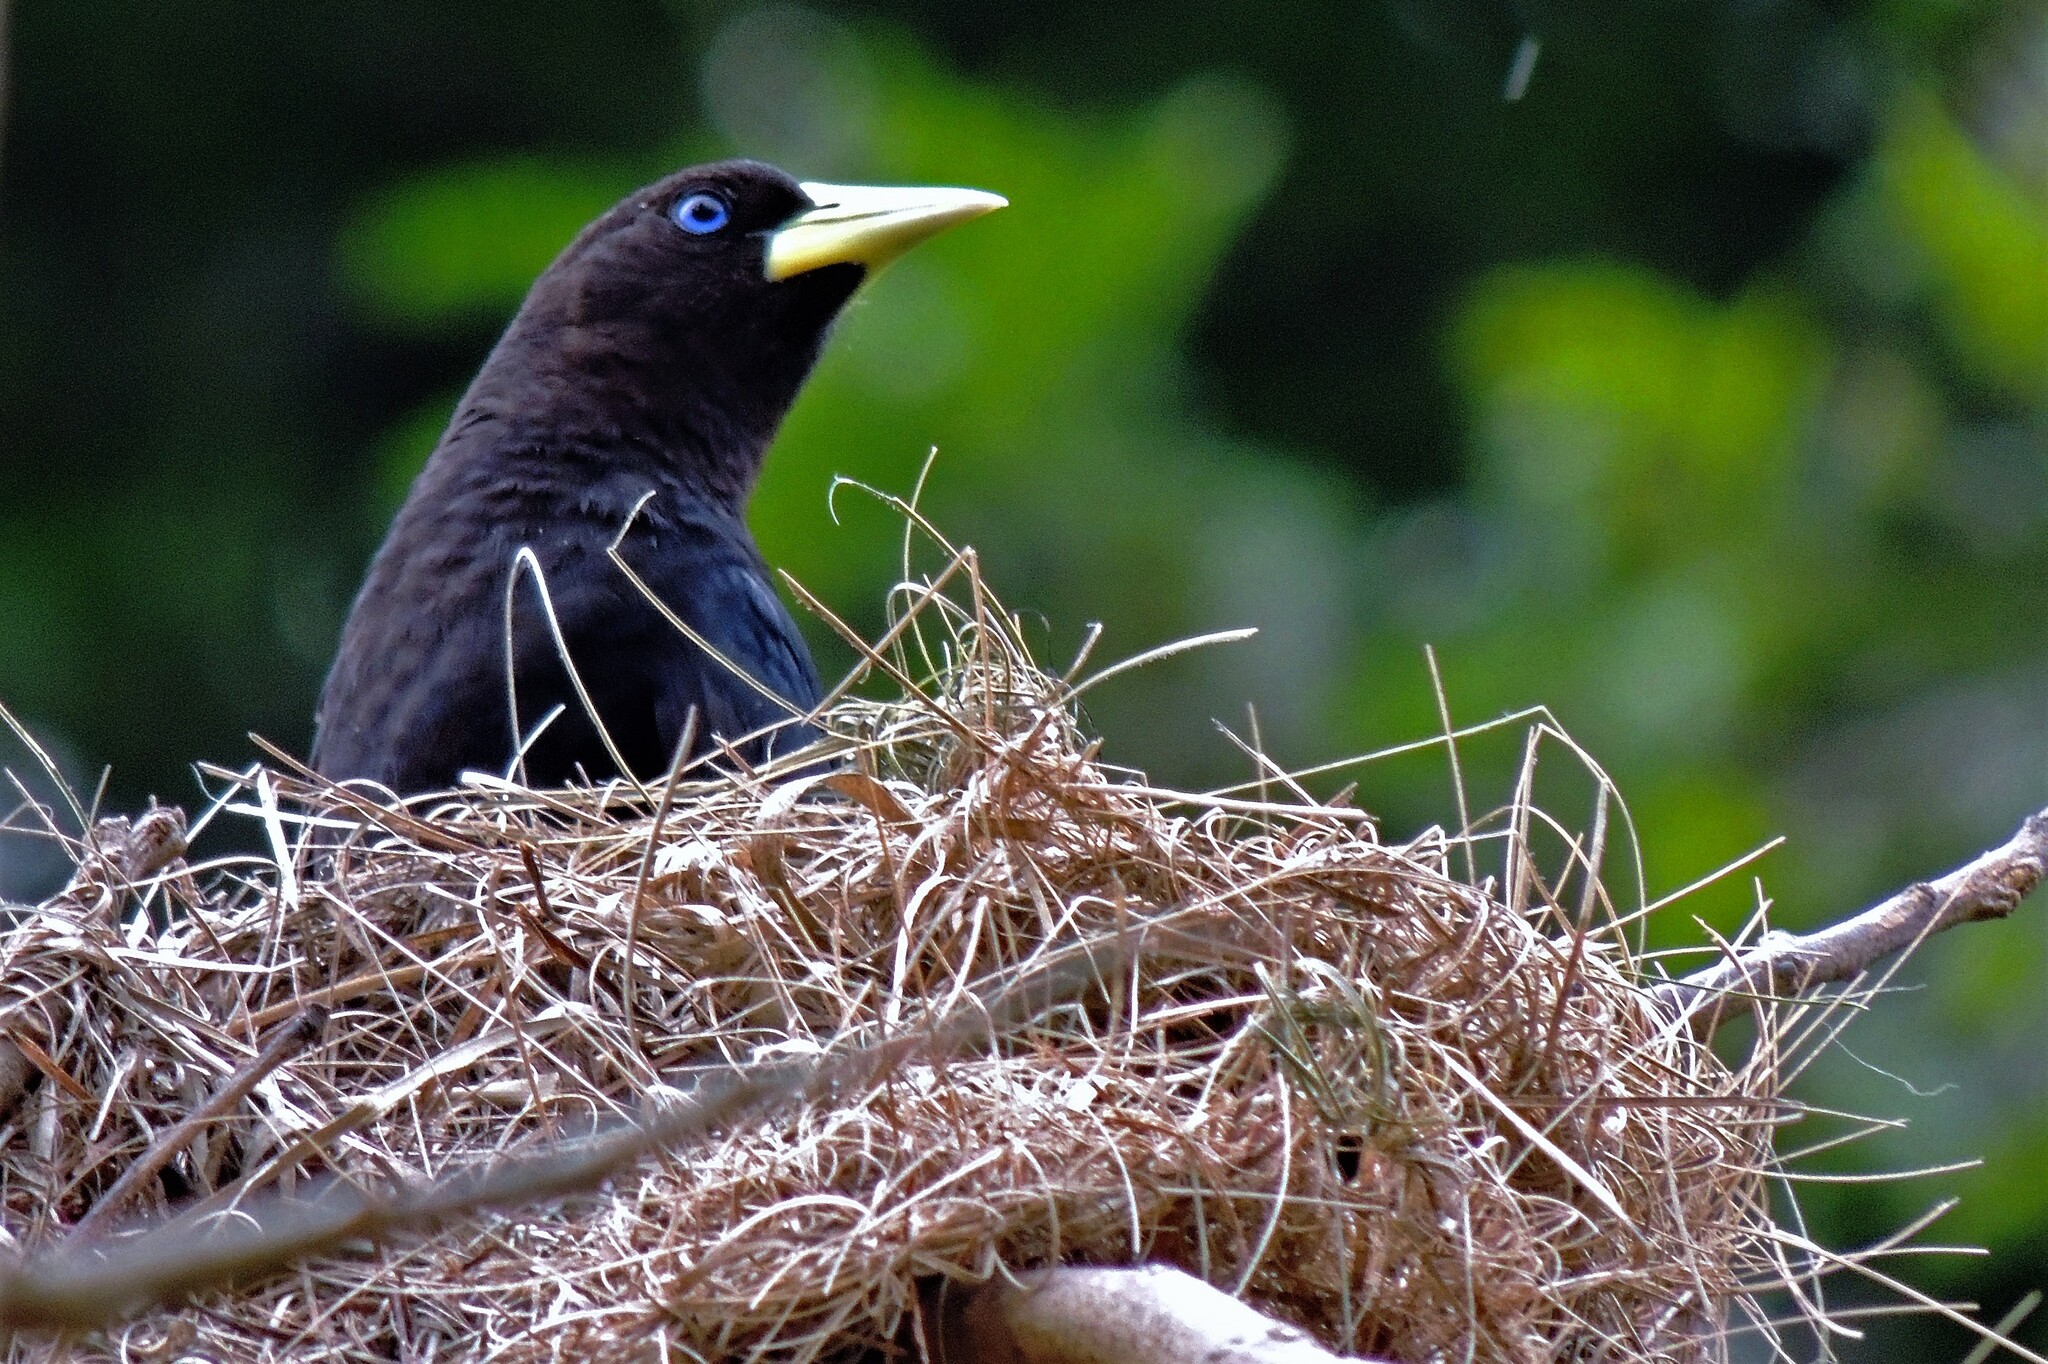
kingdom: Animalia
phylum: Chordata
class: Aves
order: Passeriformes
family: Icteridae
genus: Cacicus
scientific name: Cacicus haemorrhous
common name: Red-rumped cacique
